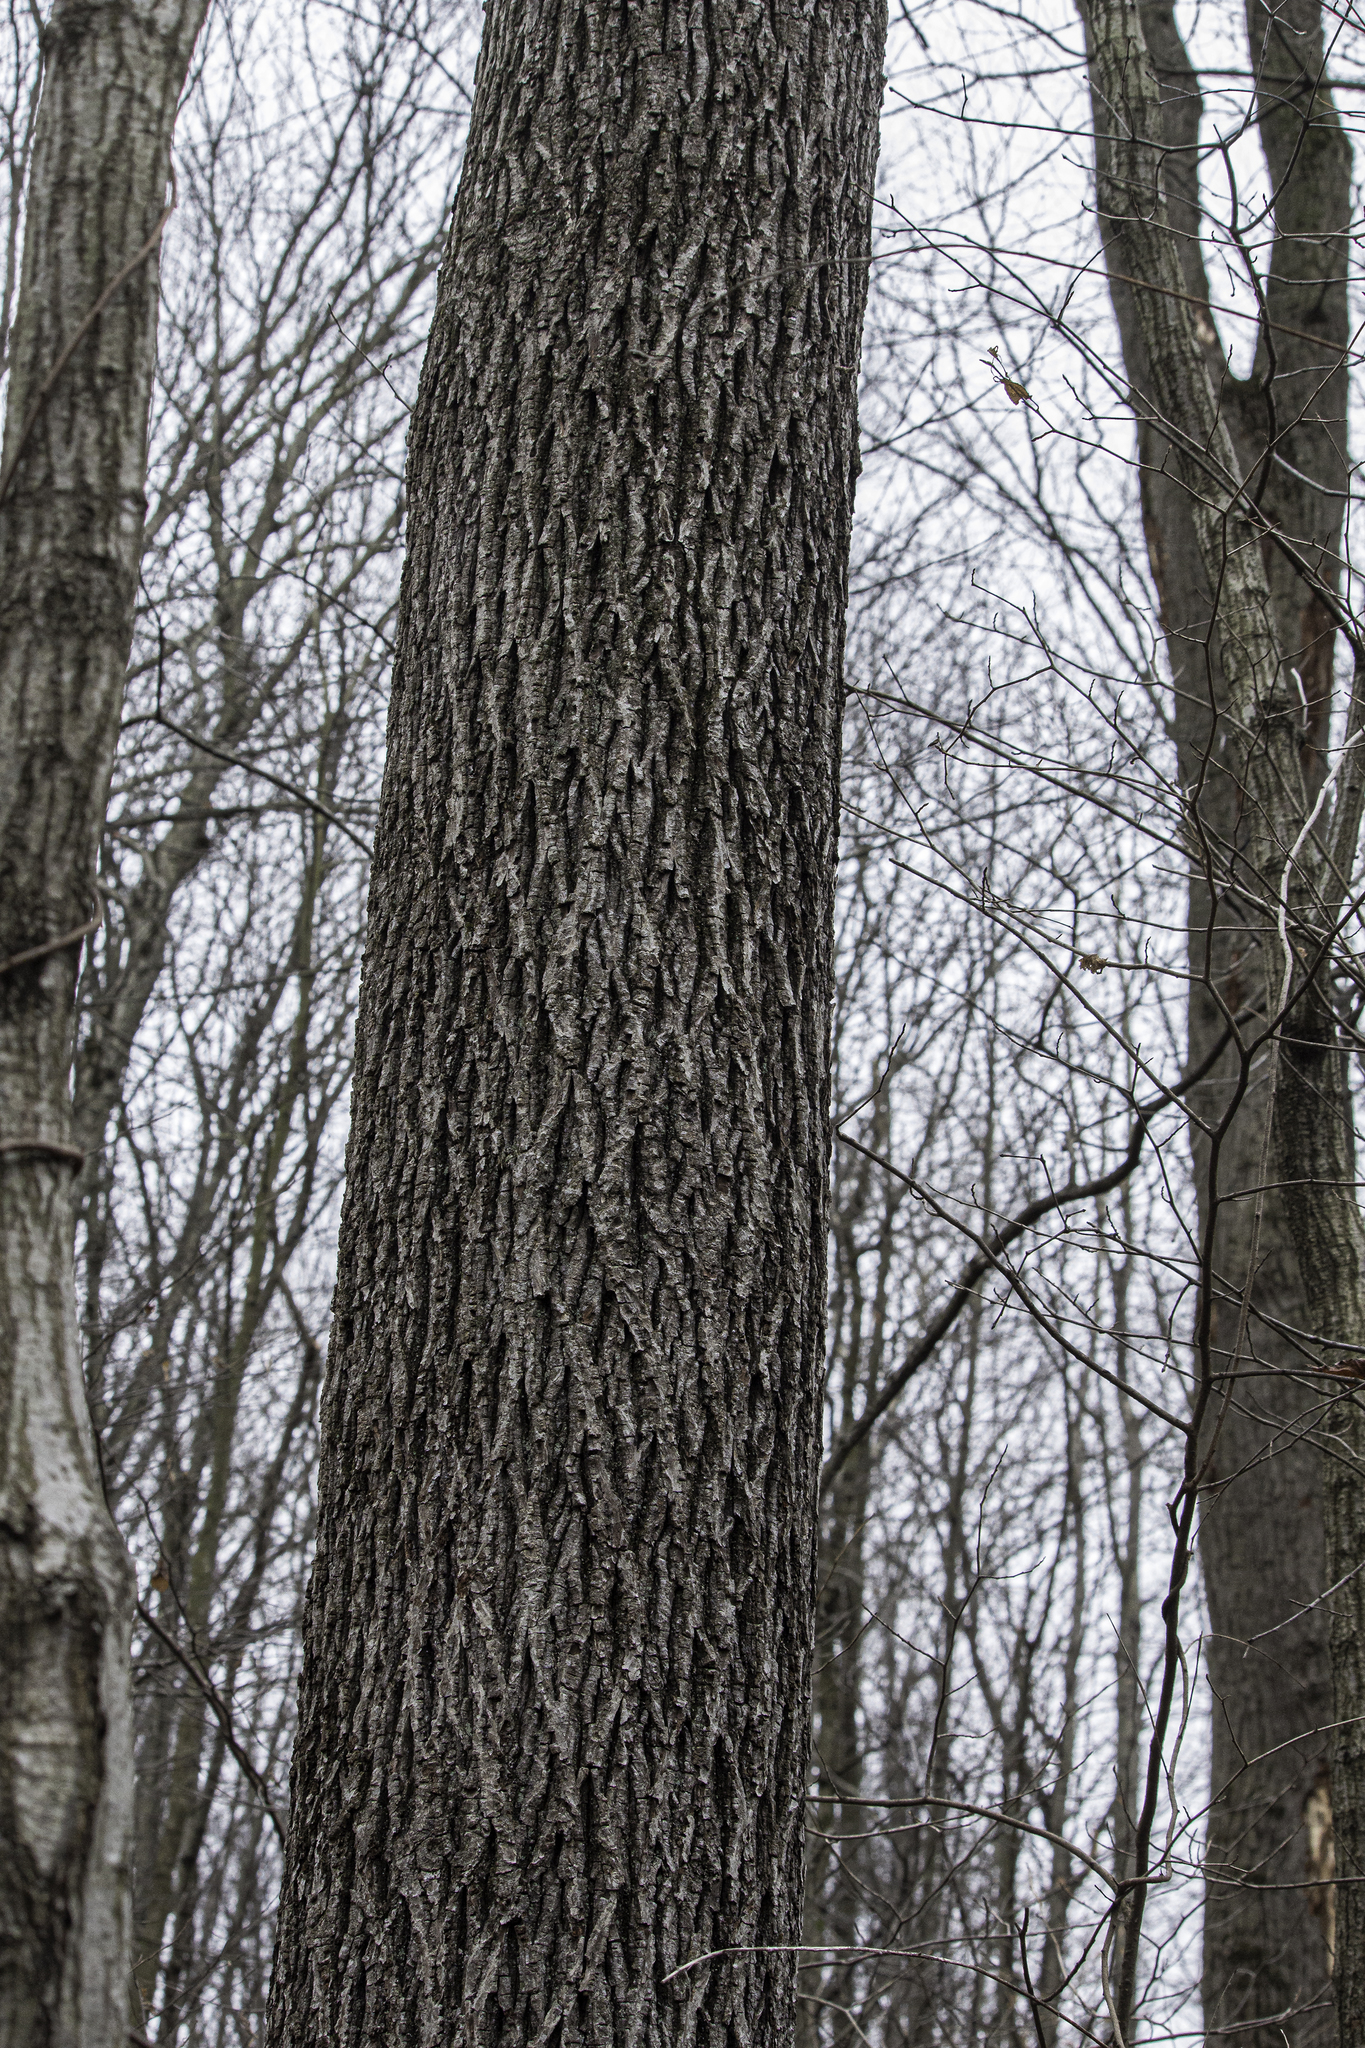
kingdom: Plantae
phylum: Tracheophyta
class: Magnoliopsida
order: Fagales
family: Juglandaceae
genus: Carya
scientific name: Carya alba
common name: Mockernut hickory
